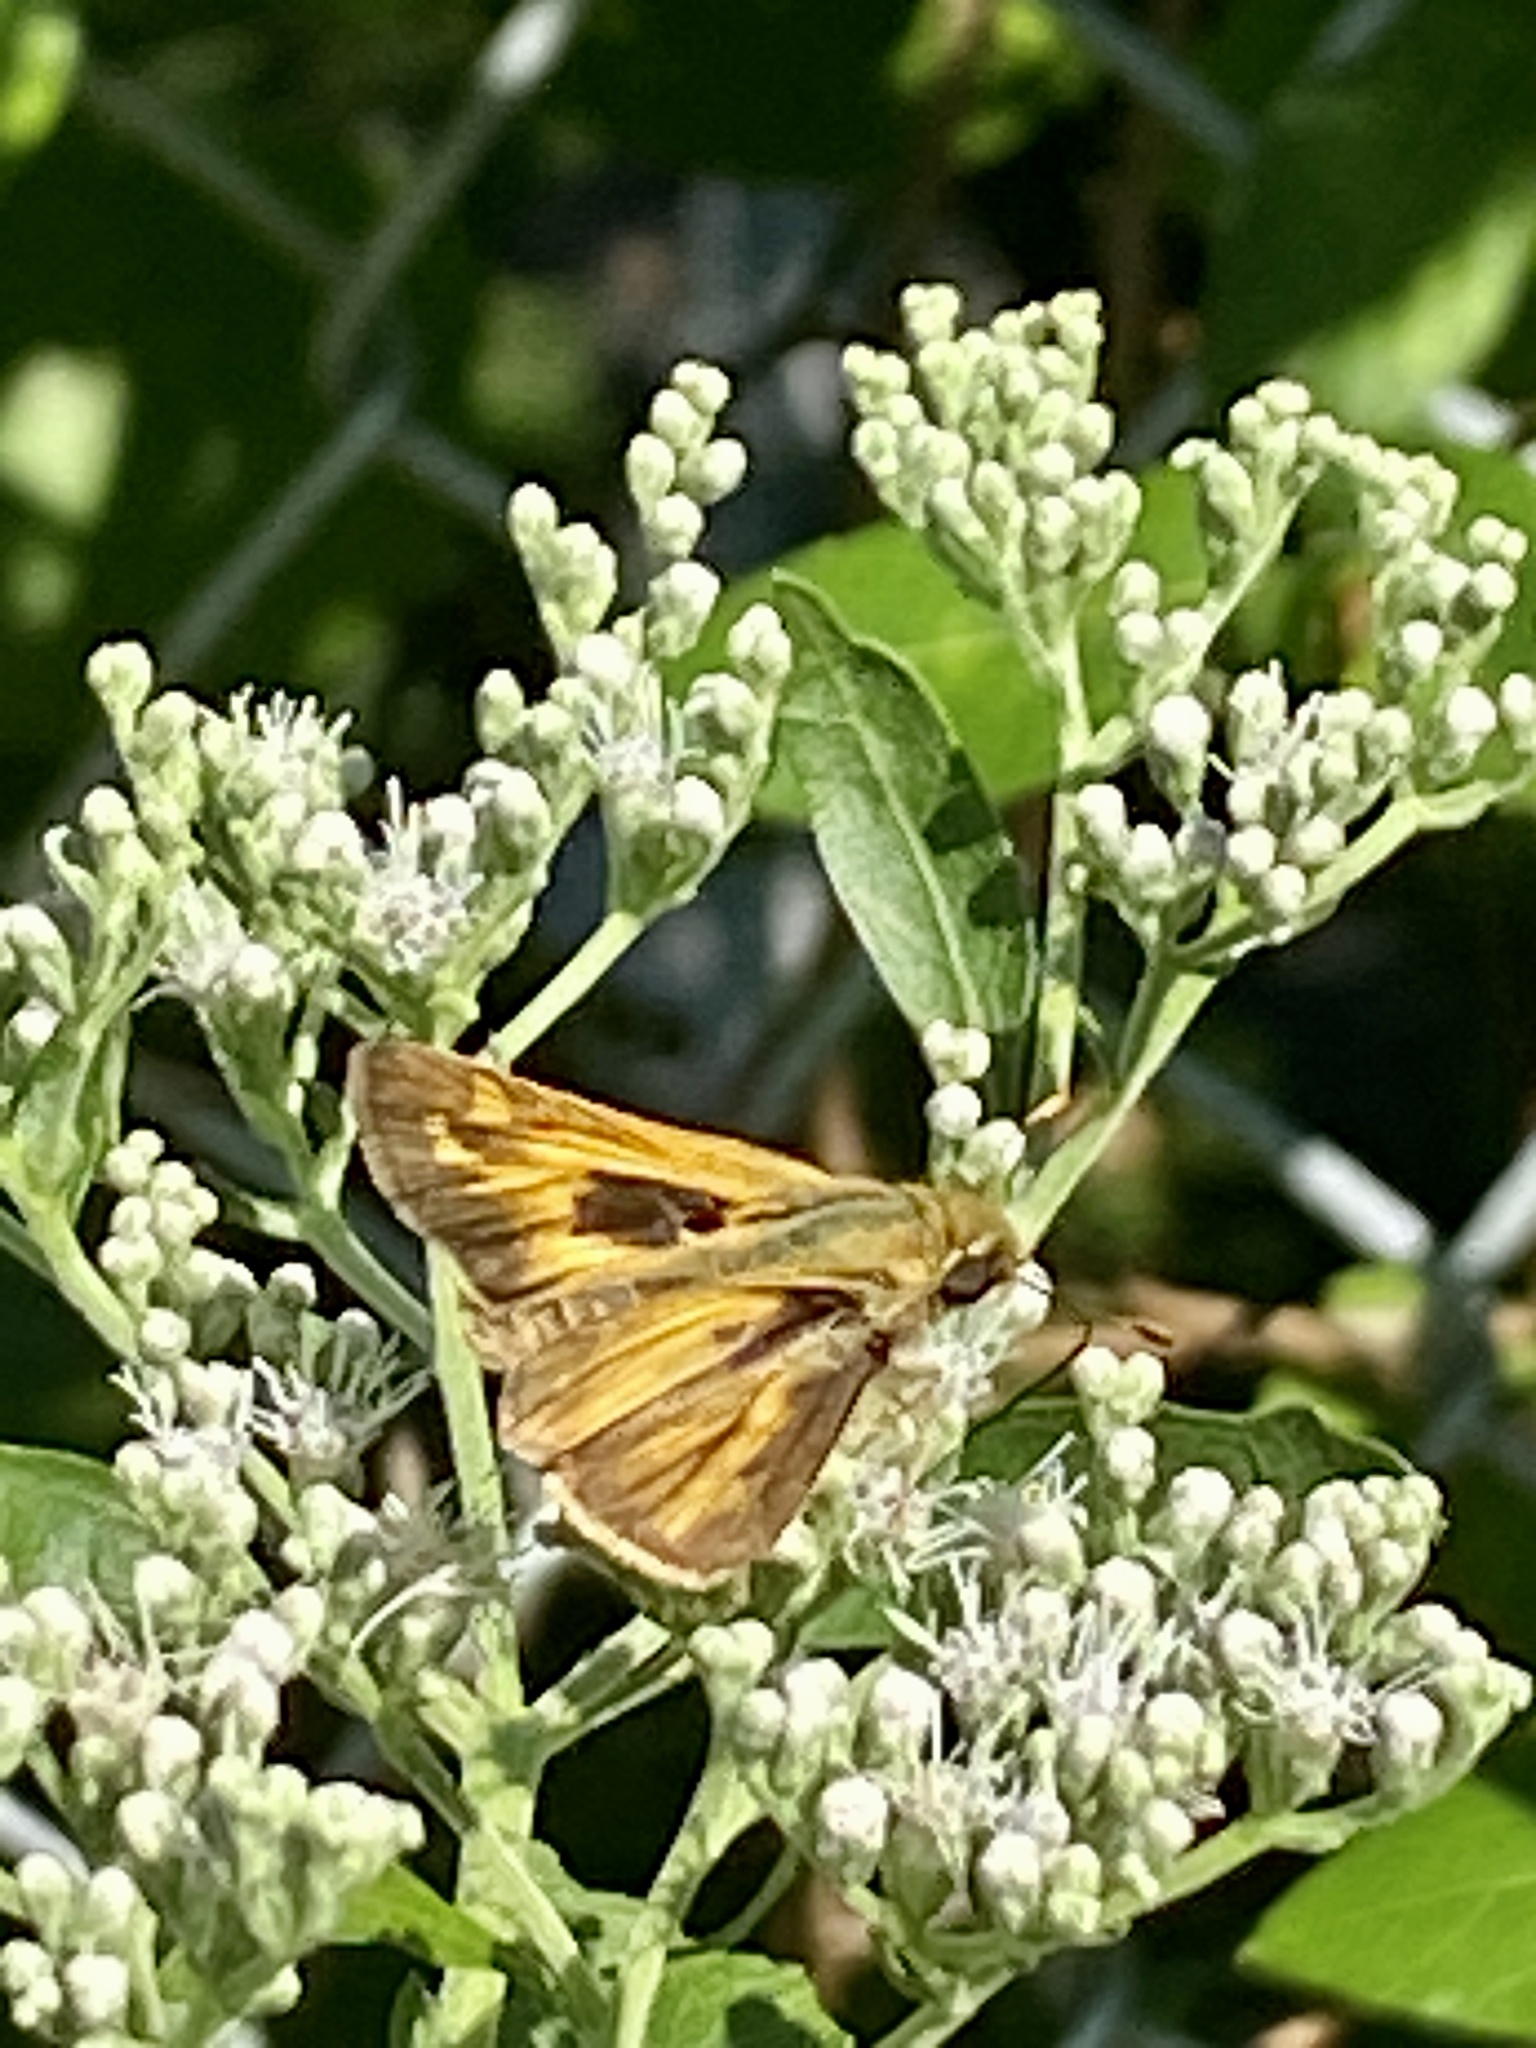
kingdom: Animalia
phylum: Arthropoda
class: Insecta
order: Lepidoptera
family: Hesperiidae
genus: Atalopedes
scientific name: Atalopedes
